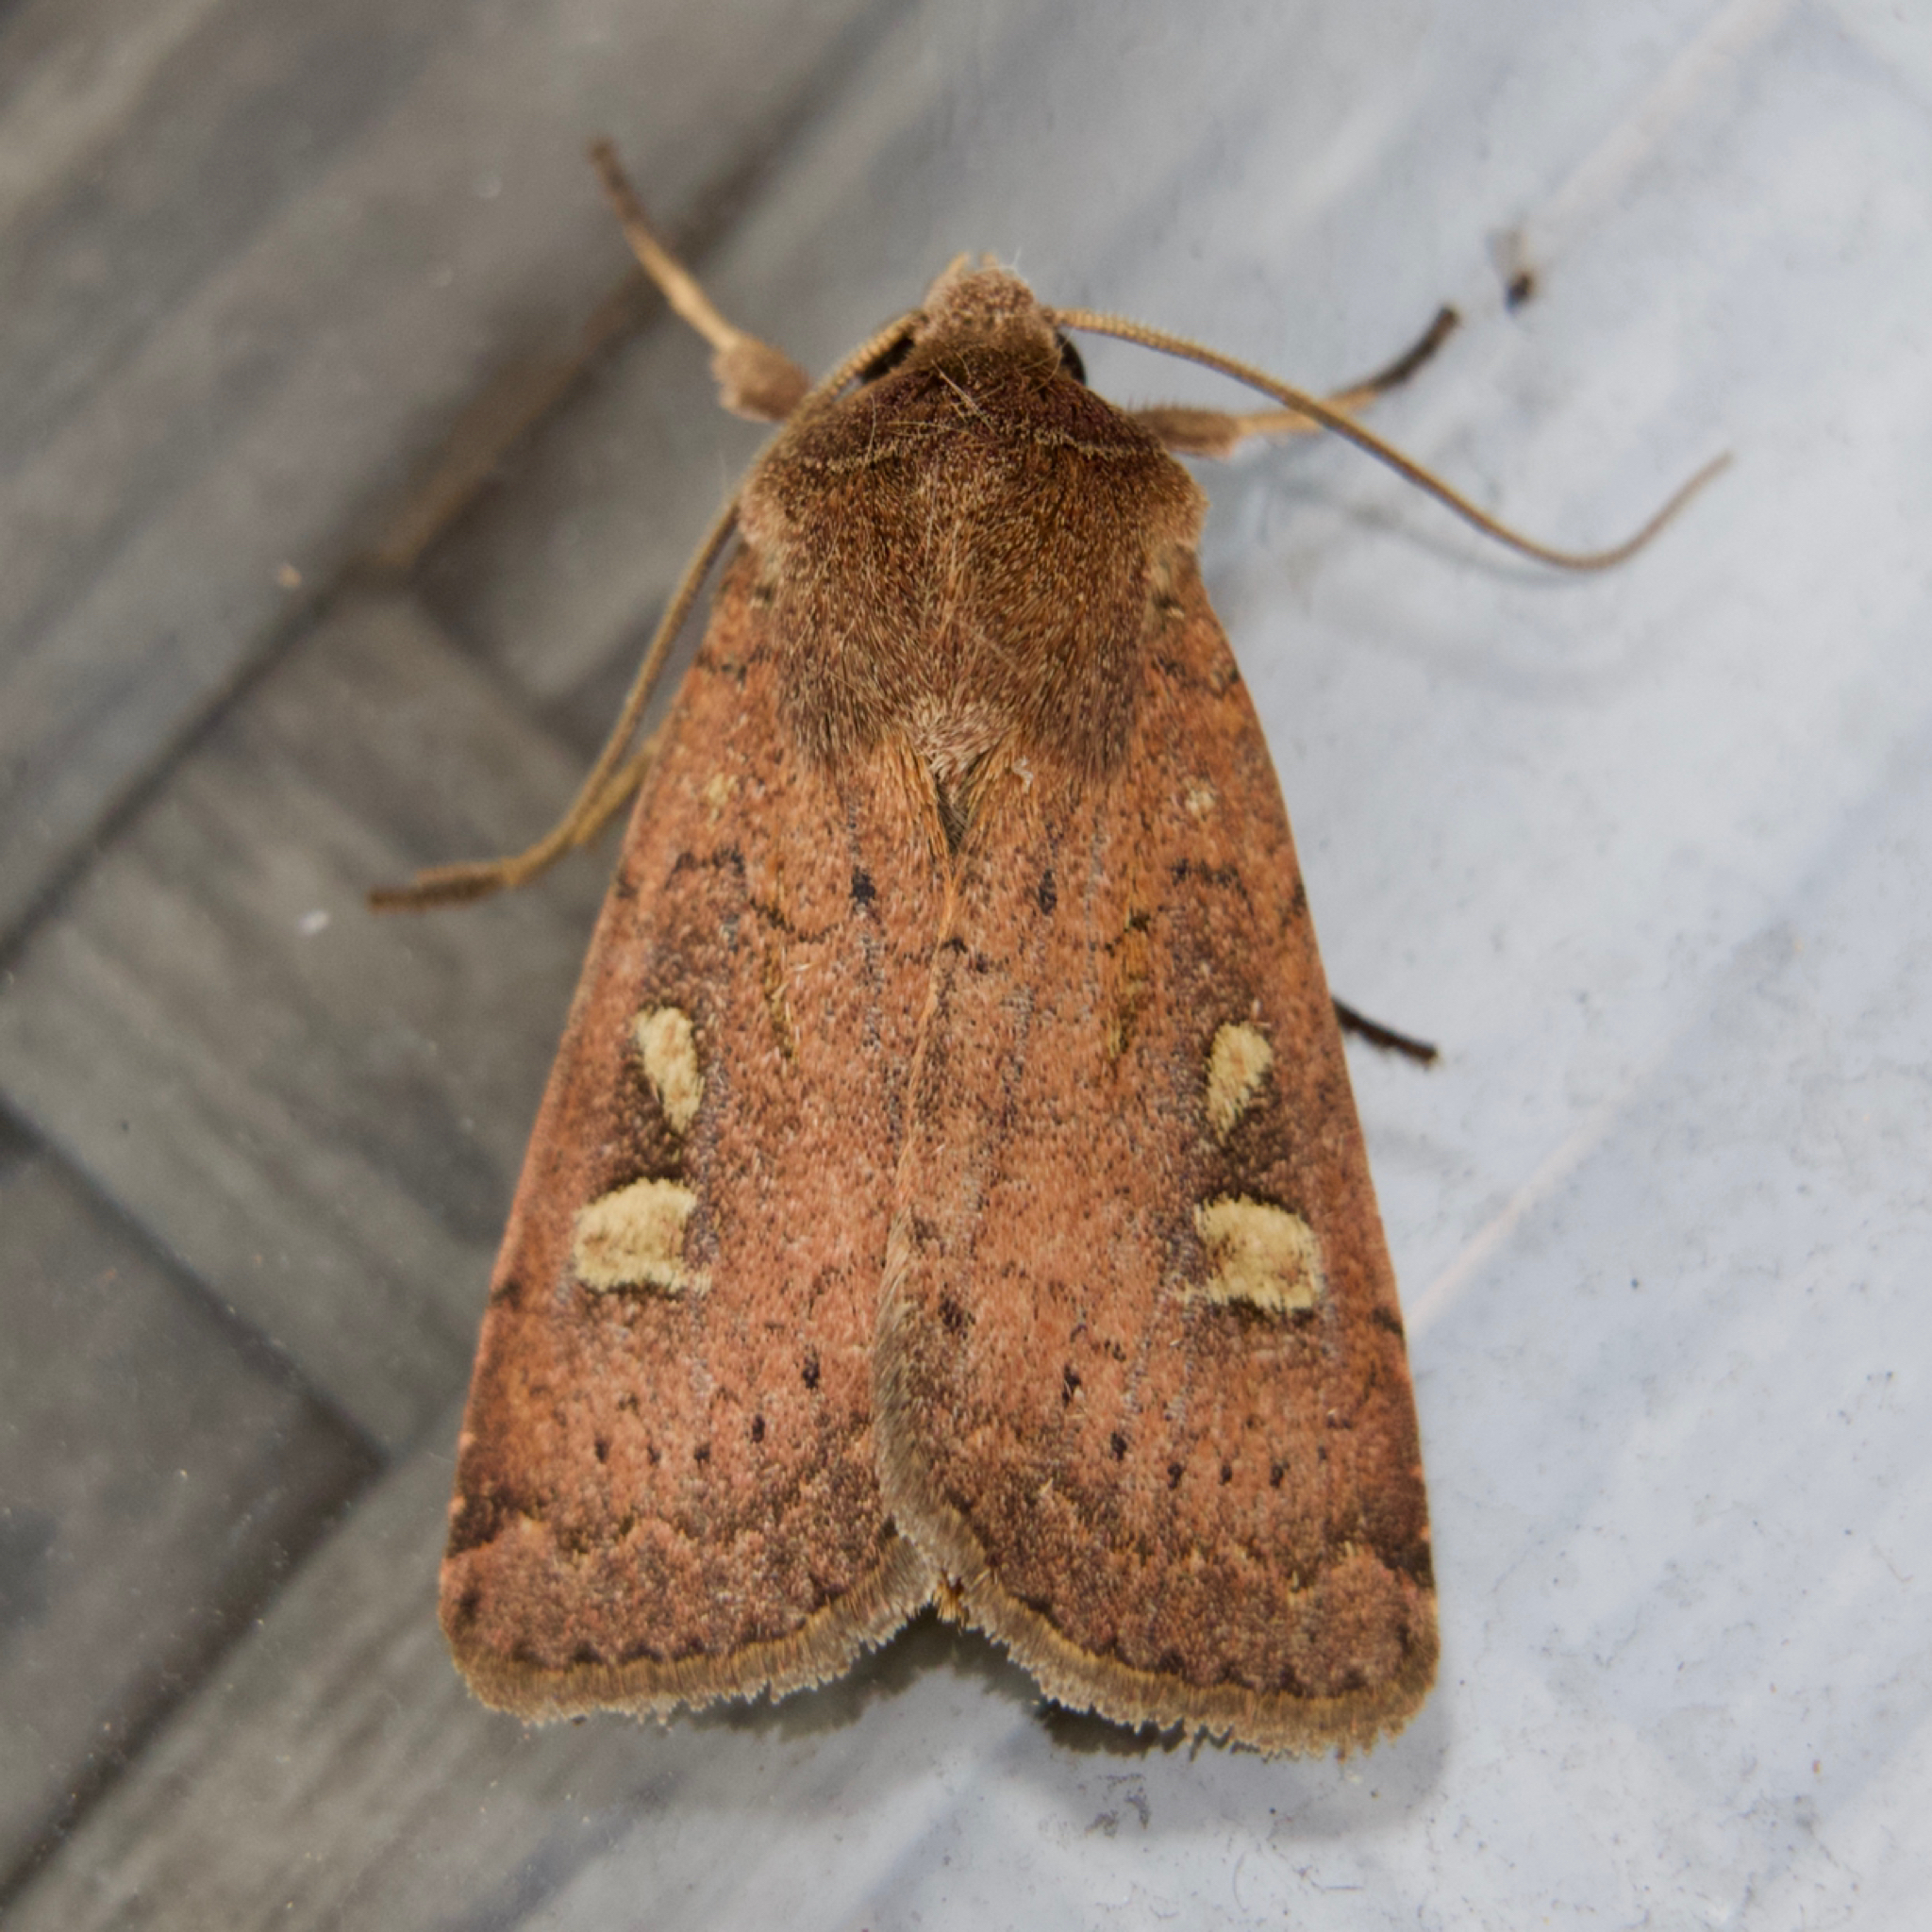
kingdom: Animalia
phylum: Arthropoda
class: Insecta
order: Lepidoptera
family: Noctuidae
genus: Xestia
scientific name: Xestia xanthographa
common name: Square-spot rustic
